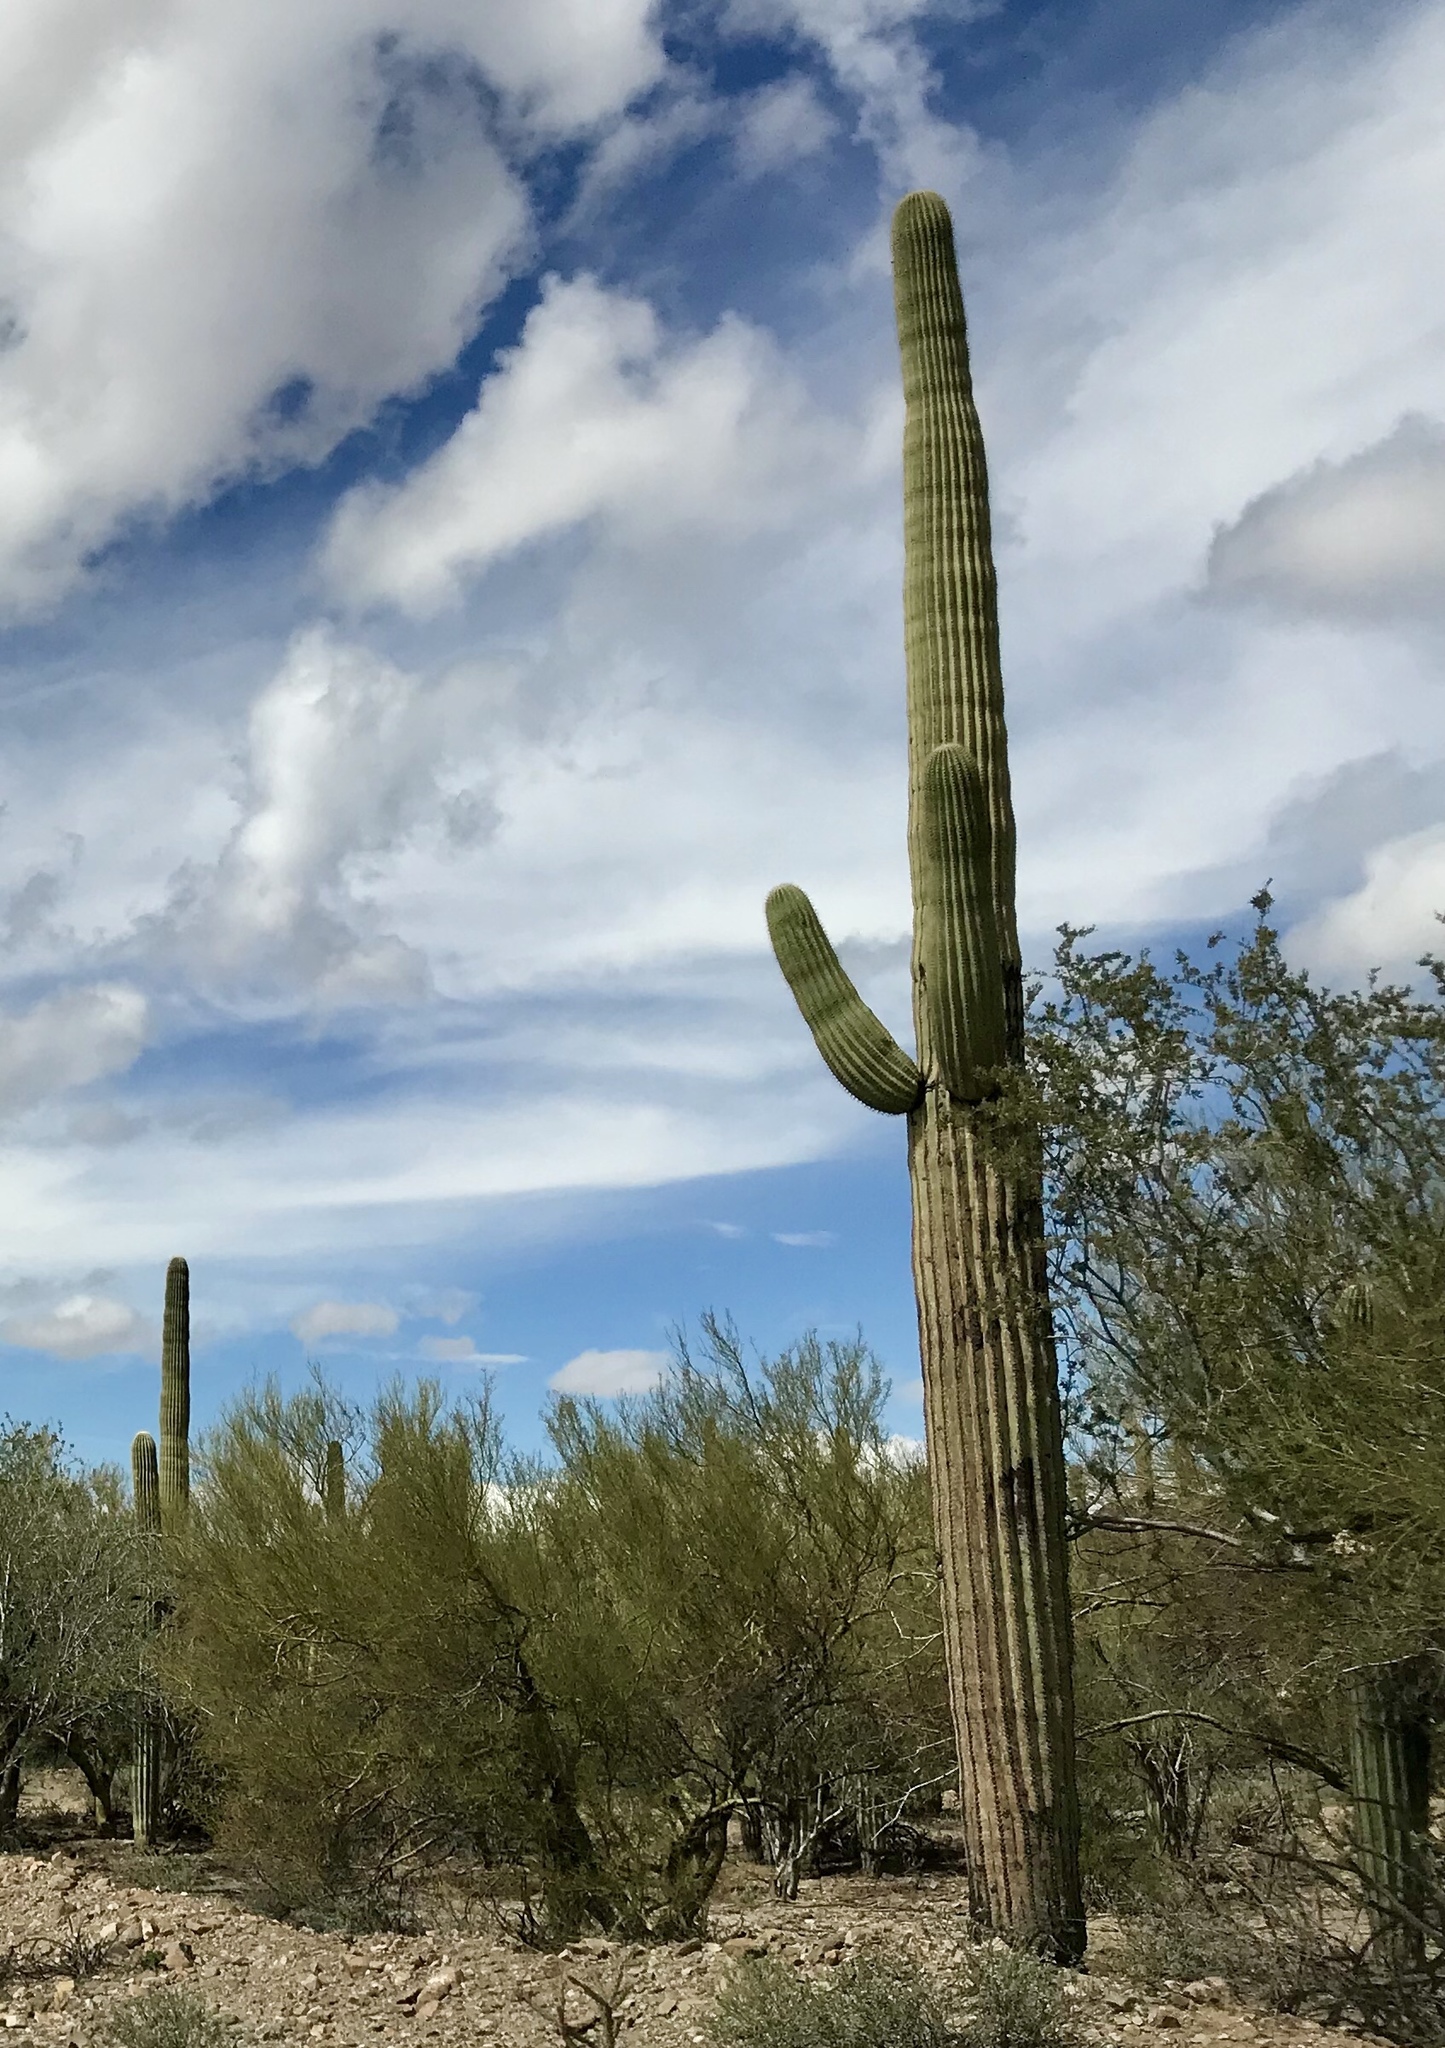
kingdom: Plantae
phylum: Tracheophyta
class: Magnoliopsida
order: Caryophyllales
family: Cactaceae
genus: Carnegiea
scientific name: Carnegiea gigantea
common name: Saguaro
